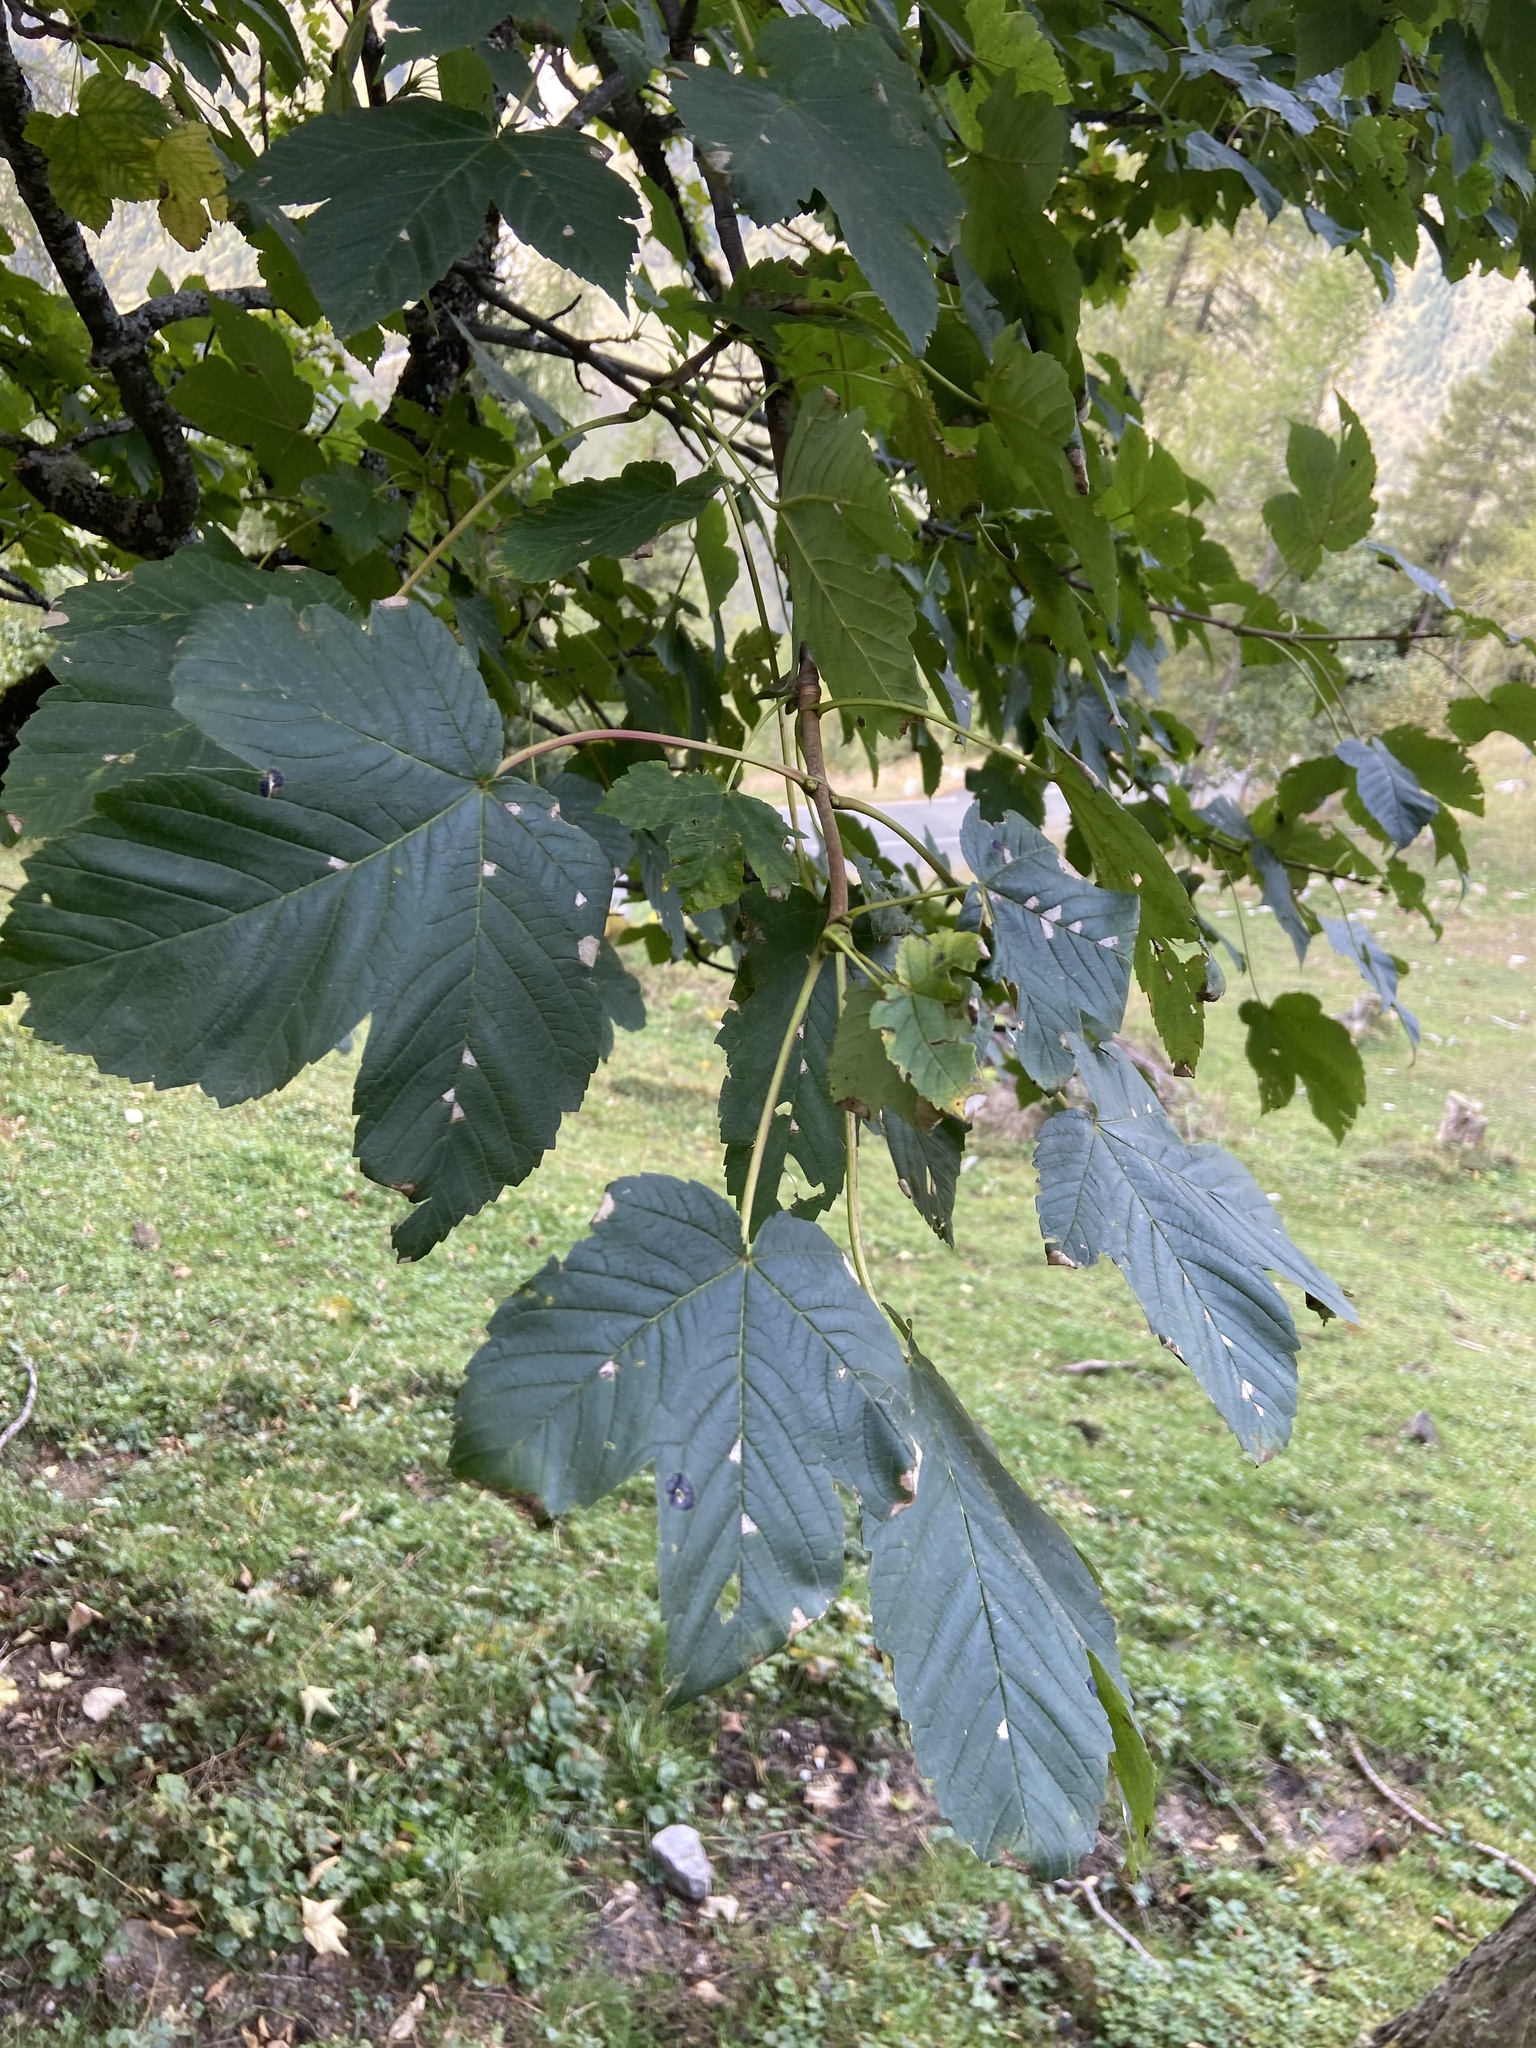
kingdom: Plantae
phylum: Tracheophyta
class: Magnoliopsida
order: Sapindales
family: Sapindaceae
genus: Acer
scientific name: Acer pseudoplatanus
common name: Sycamore
